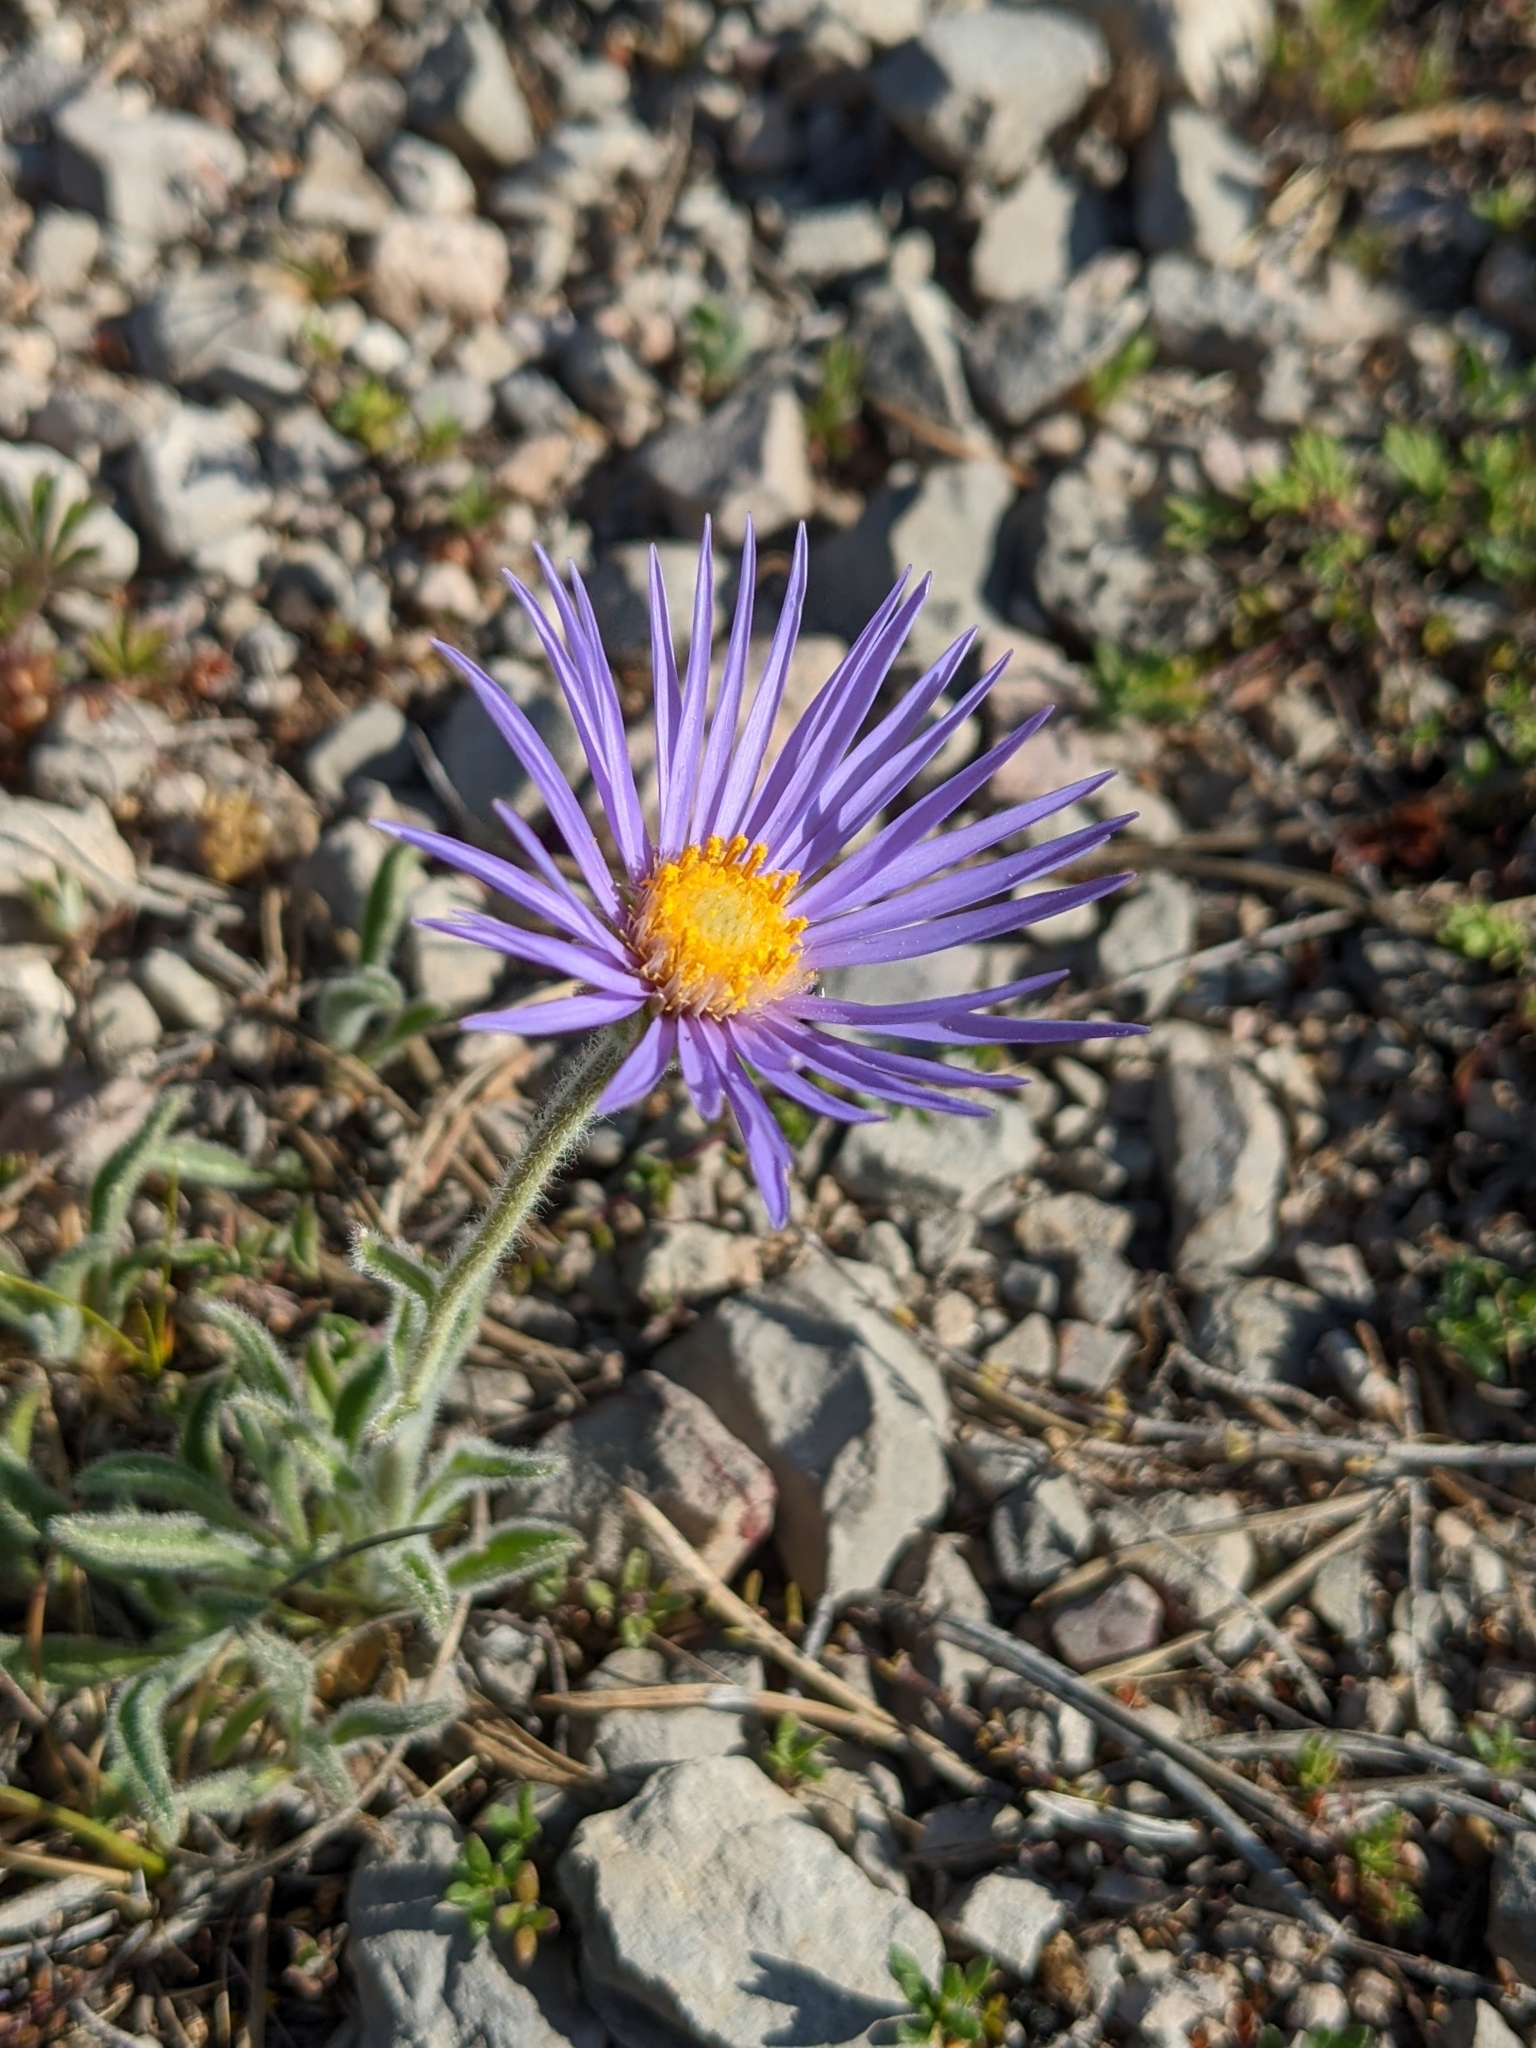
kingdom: Plantae
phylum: Tracheophyta
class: Magnoliopsida
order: Asterales
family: Asteraceae
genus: Aster
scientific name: Aster alpinus
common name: Alpine aster
